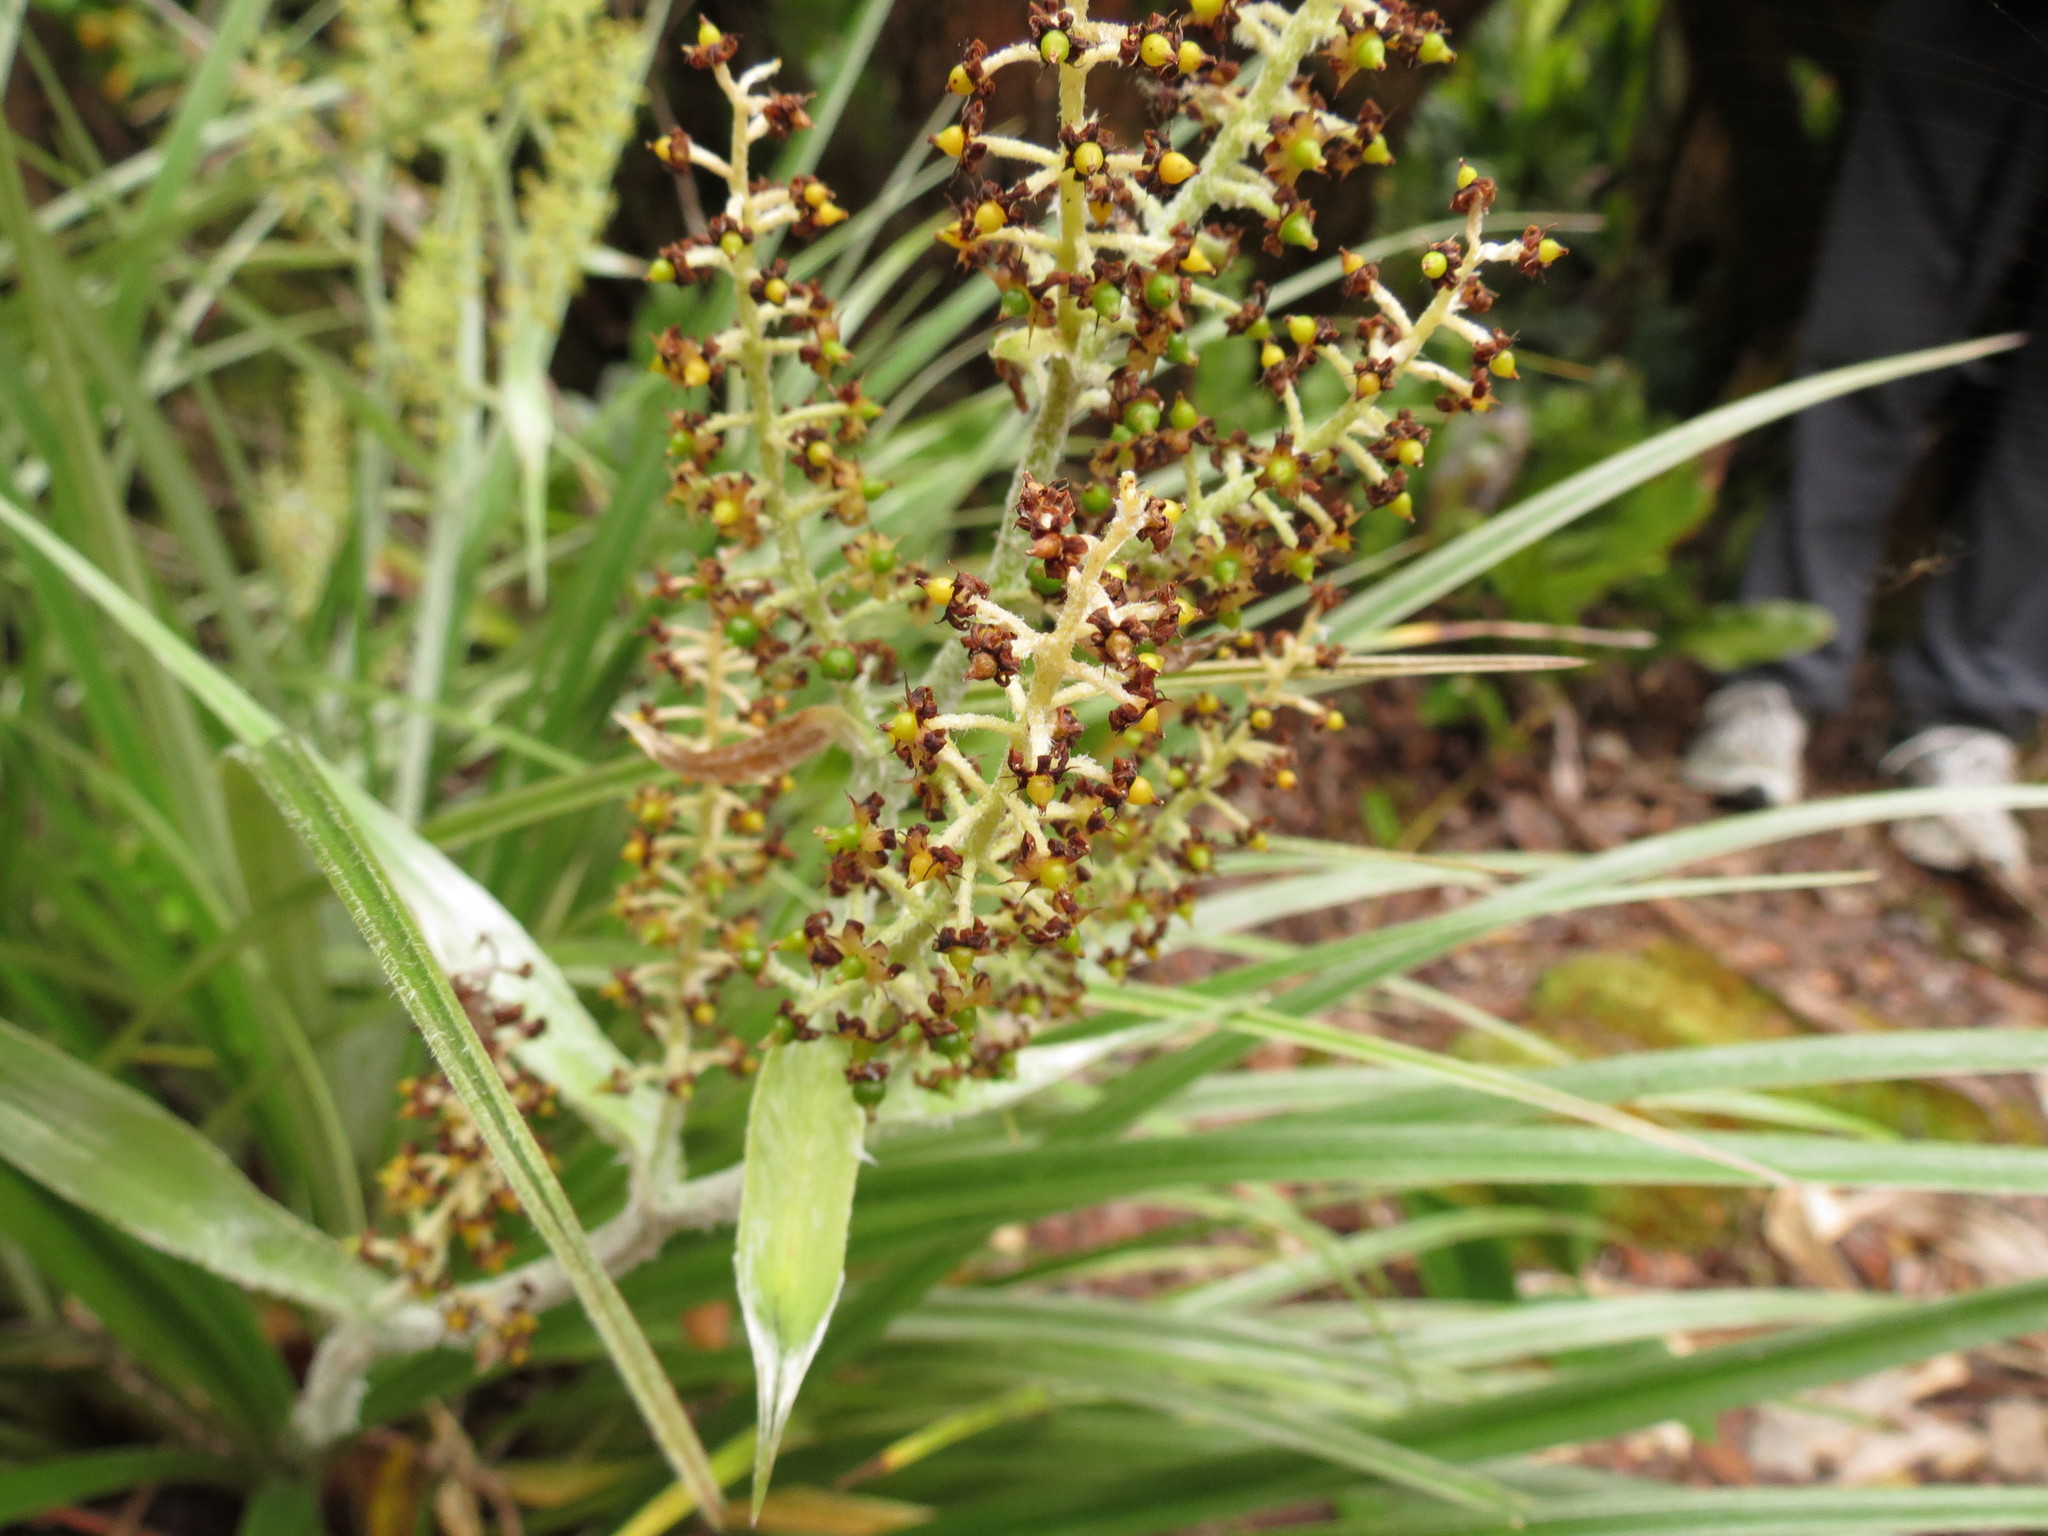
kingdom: Plantae
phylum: Tracheophyta
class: Liliopsida
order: Asparagales
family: Asteliaceae
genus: Astelia
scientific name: Astelia argyrocoma
